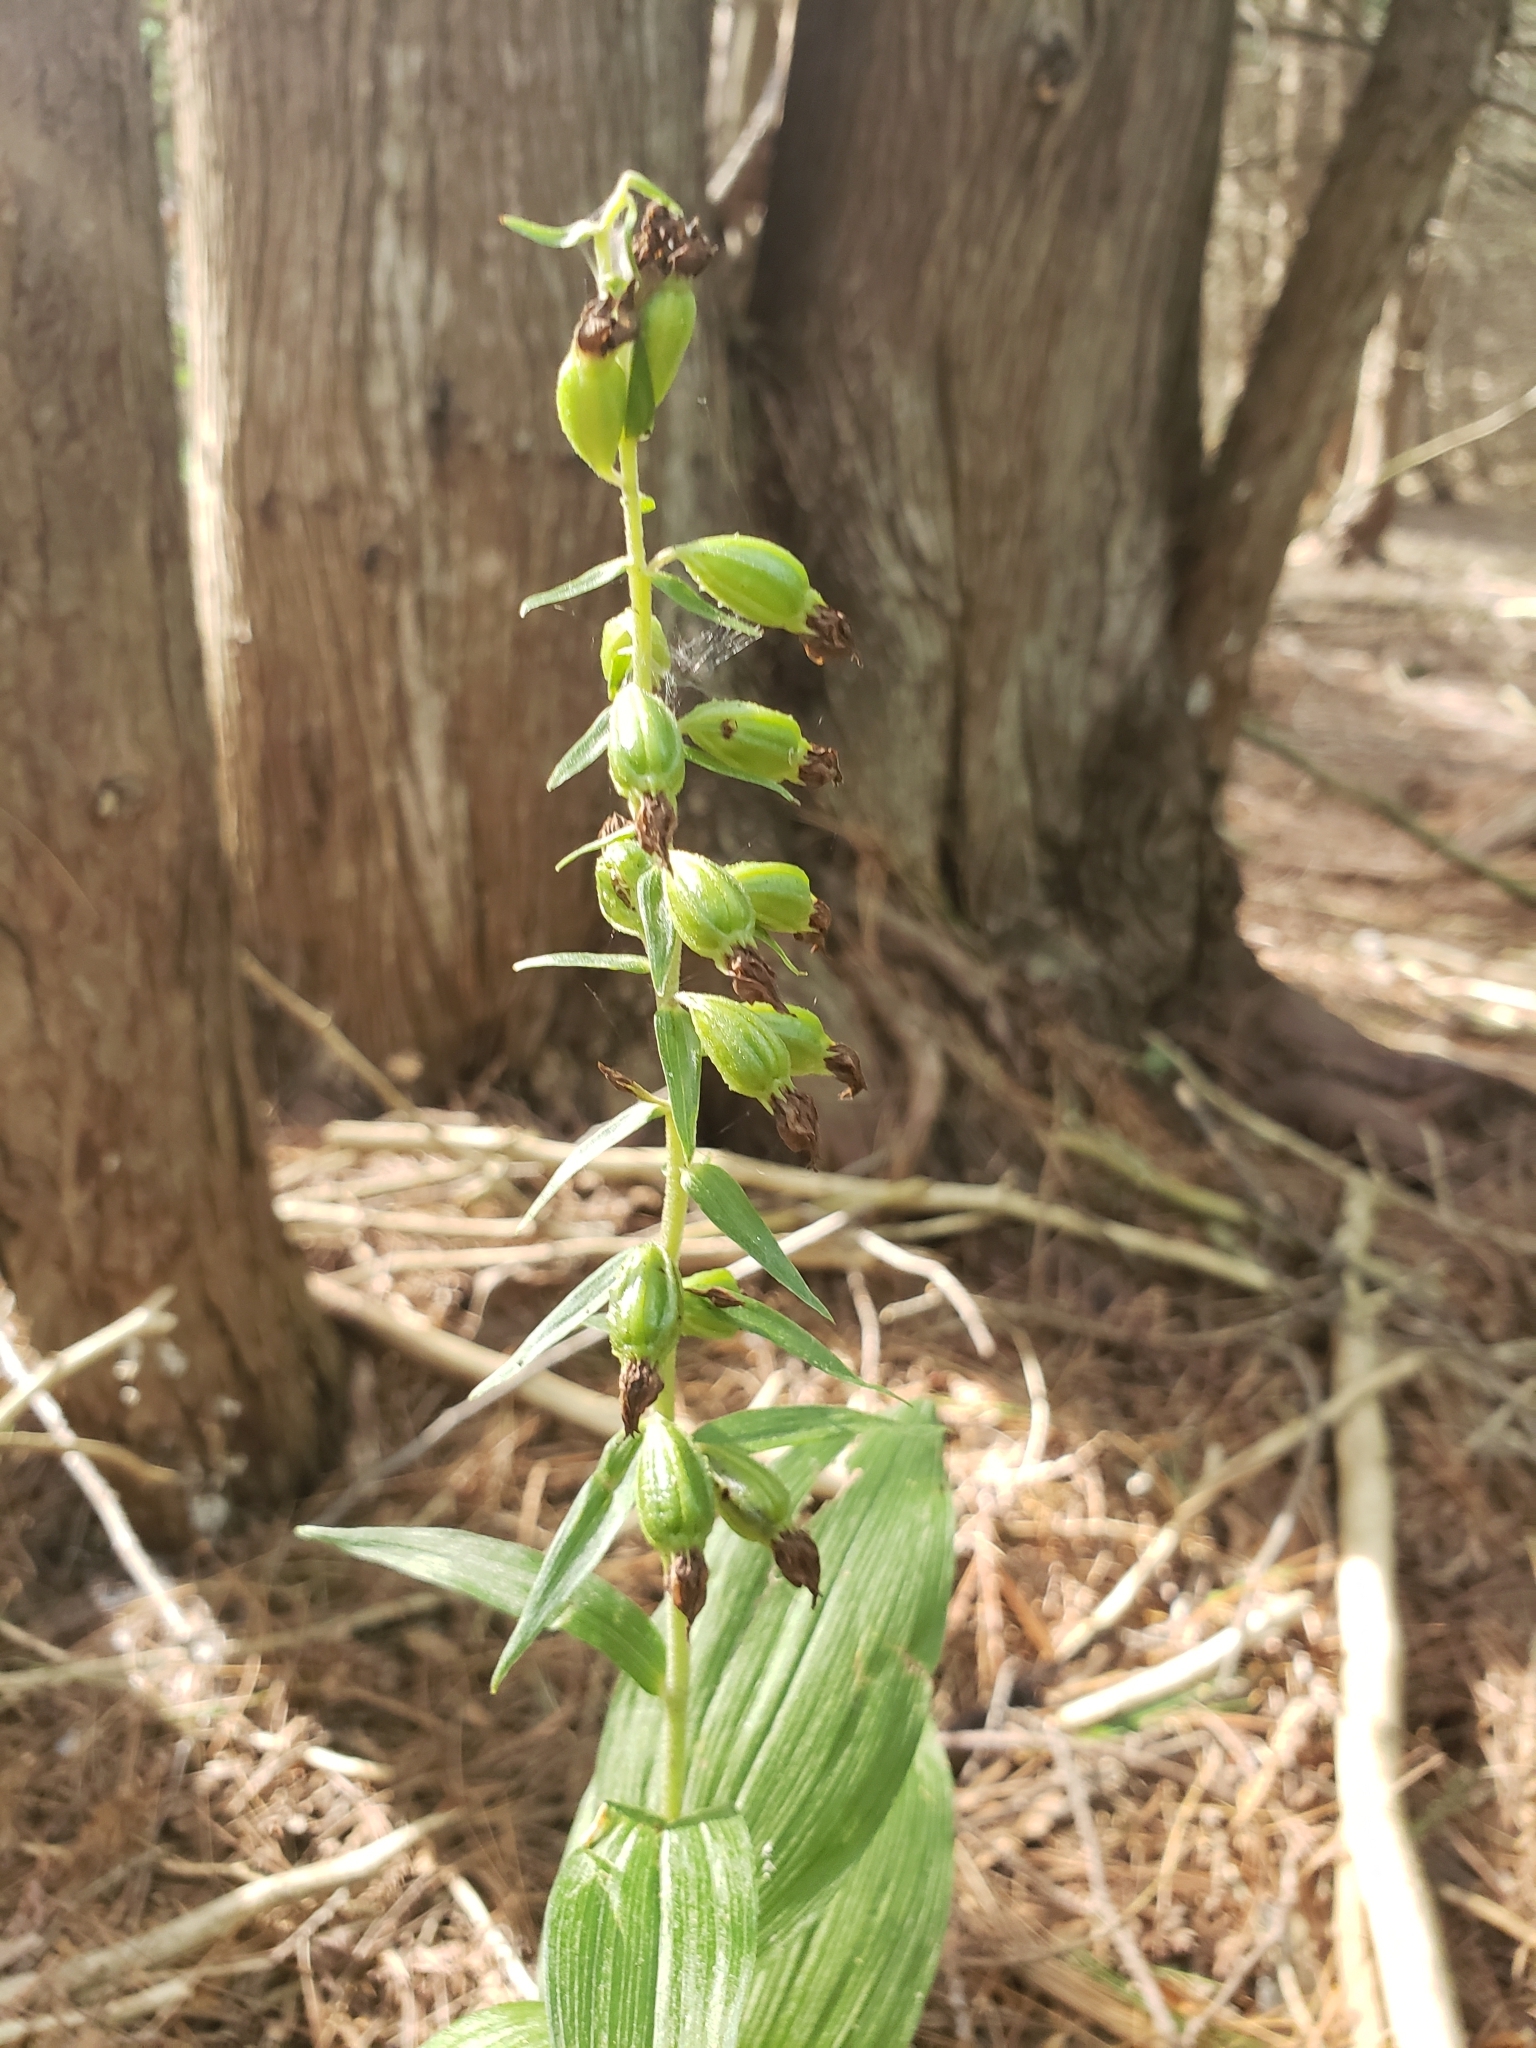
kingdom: Plantae
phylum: Tracheophyta
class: Liliopsida
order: Asparagales
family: Orchidaceae
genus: Epipactis
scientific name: Epipactis helleborine
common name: Broad-leaved helleborine
